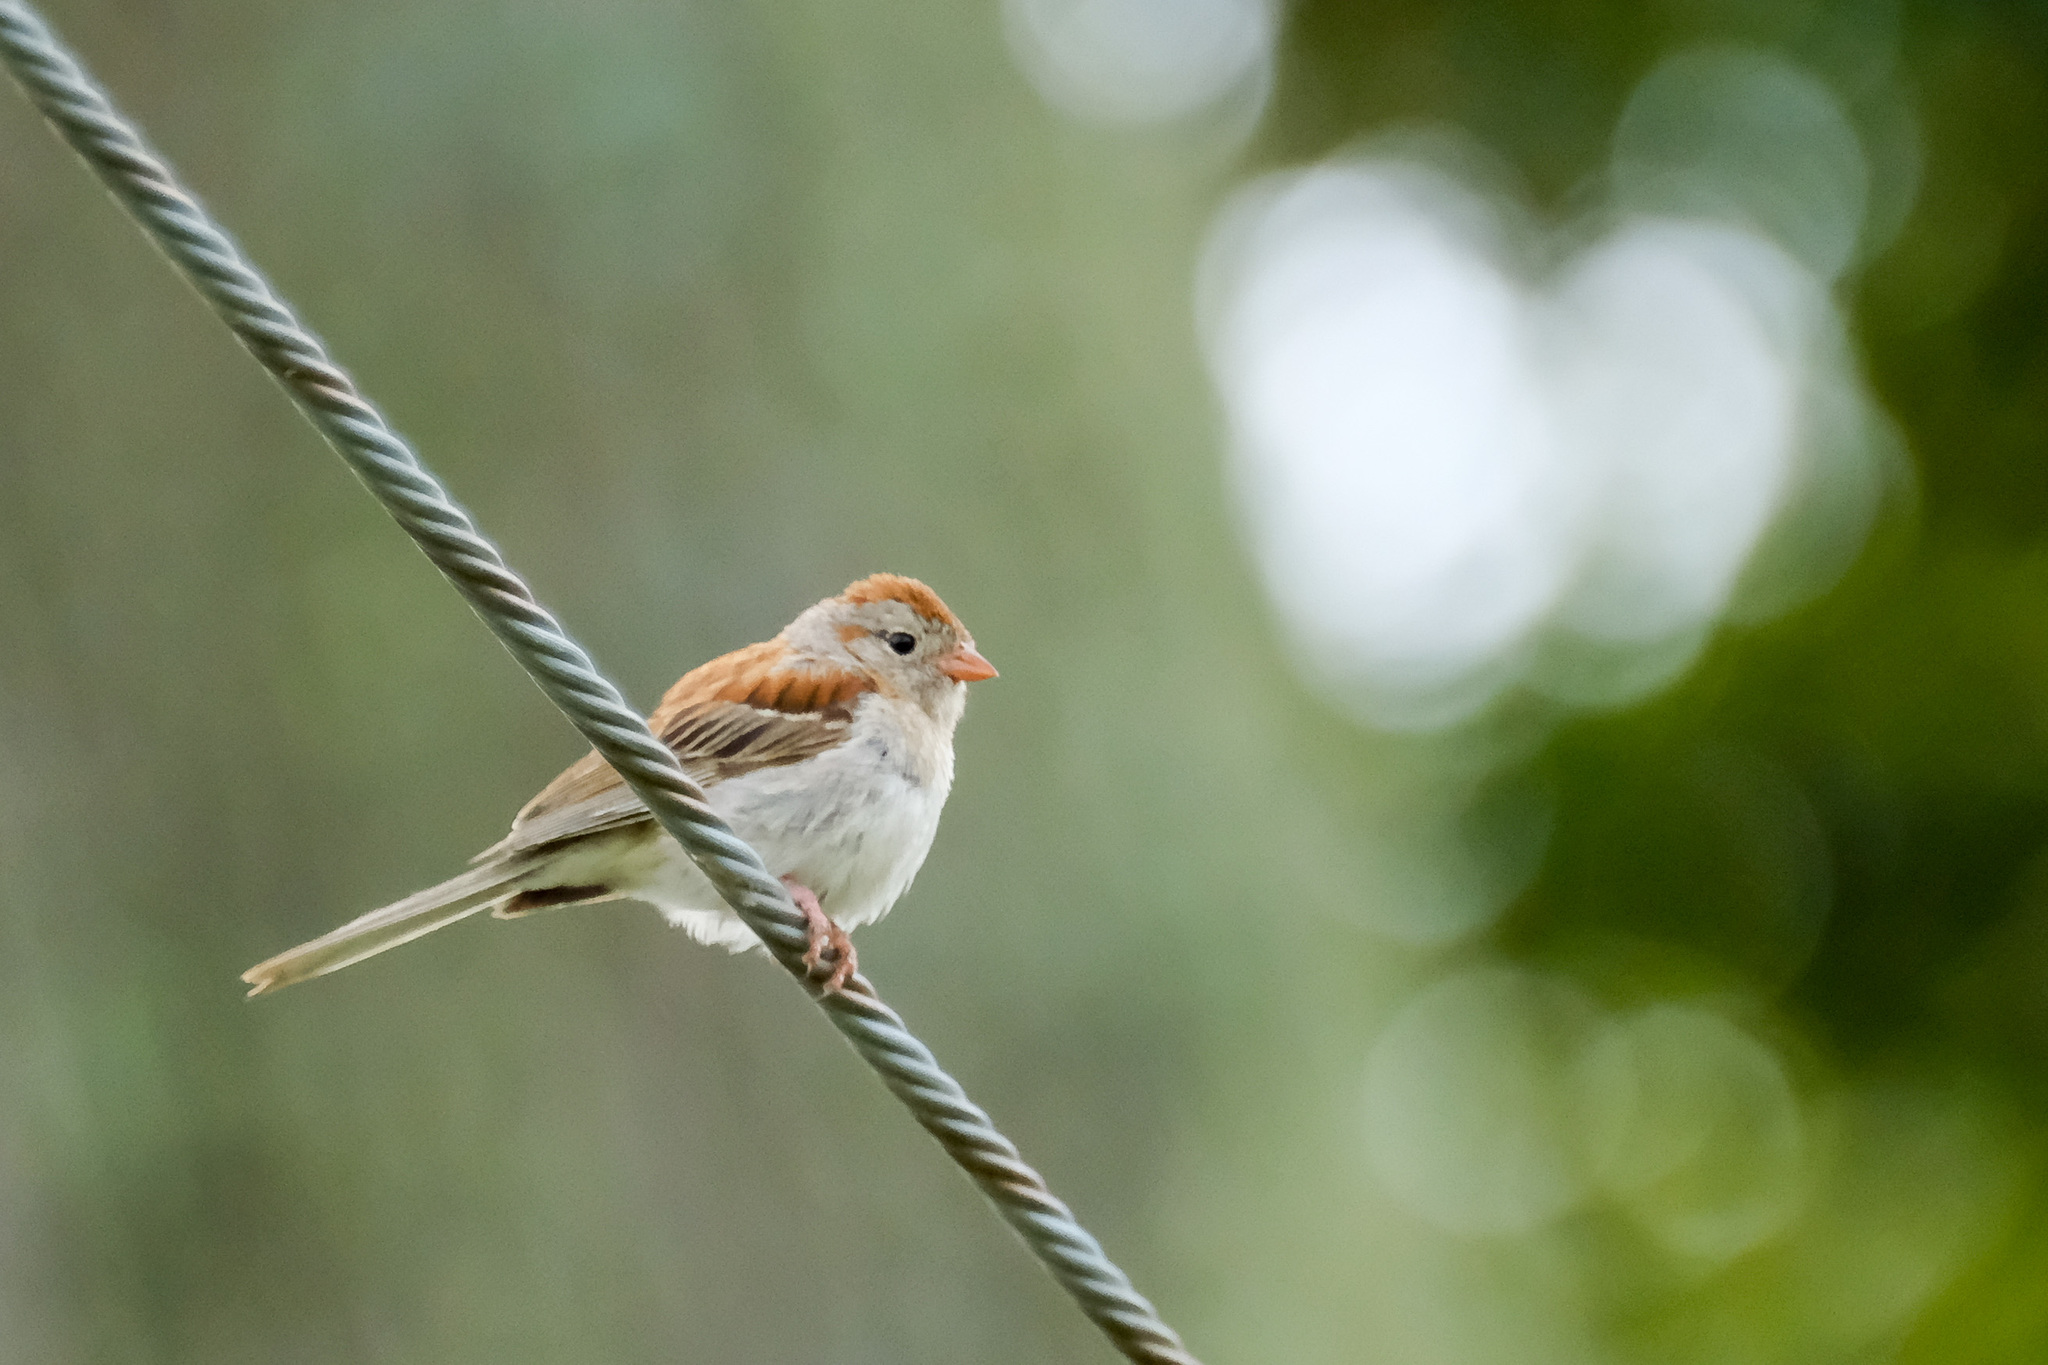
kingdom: Animalia
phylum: Chordata
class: Aves
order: Passeriformes
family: Passerellidae
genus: Spizella
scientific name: Spizella pusilla
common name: Field sparrow
